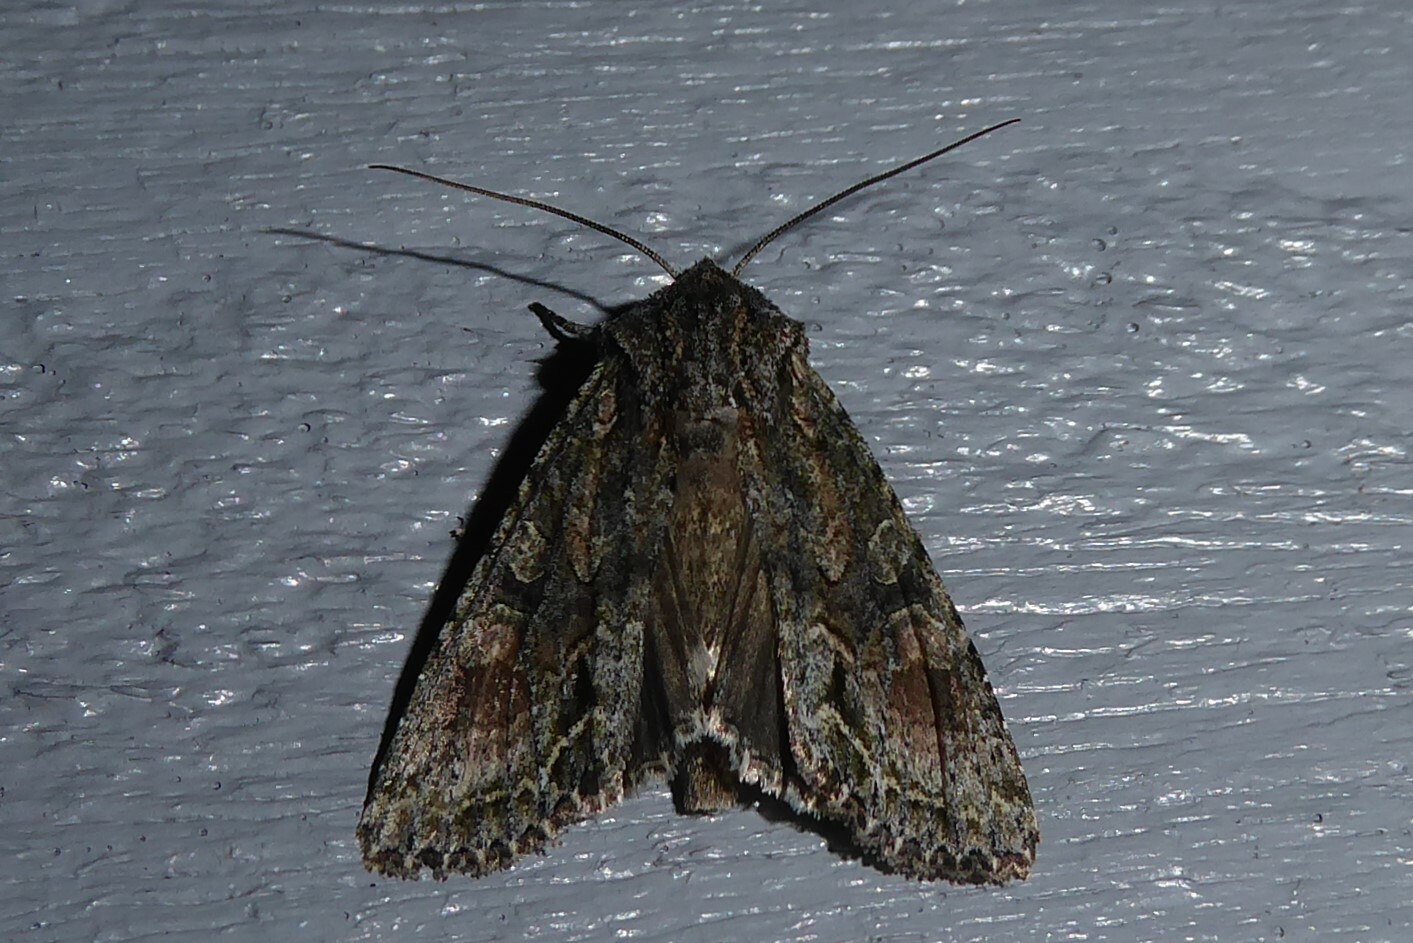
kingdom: Animalia
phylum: Arthropoda
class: Insecta
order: Lepidoptera
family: Noctuidae
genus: Ichneutica
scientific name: Ichneutica mutans
